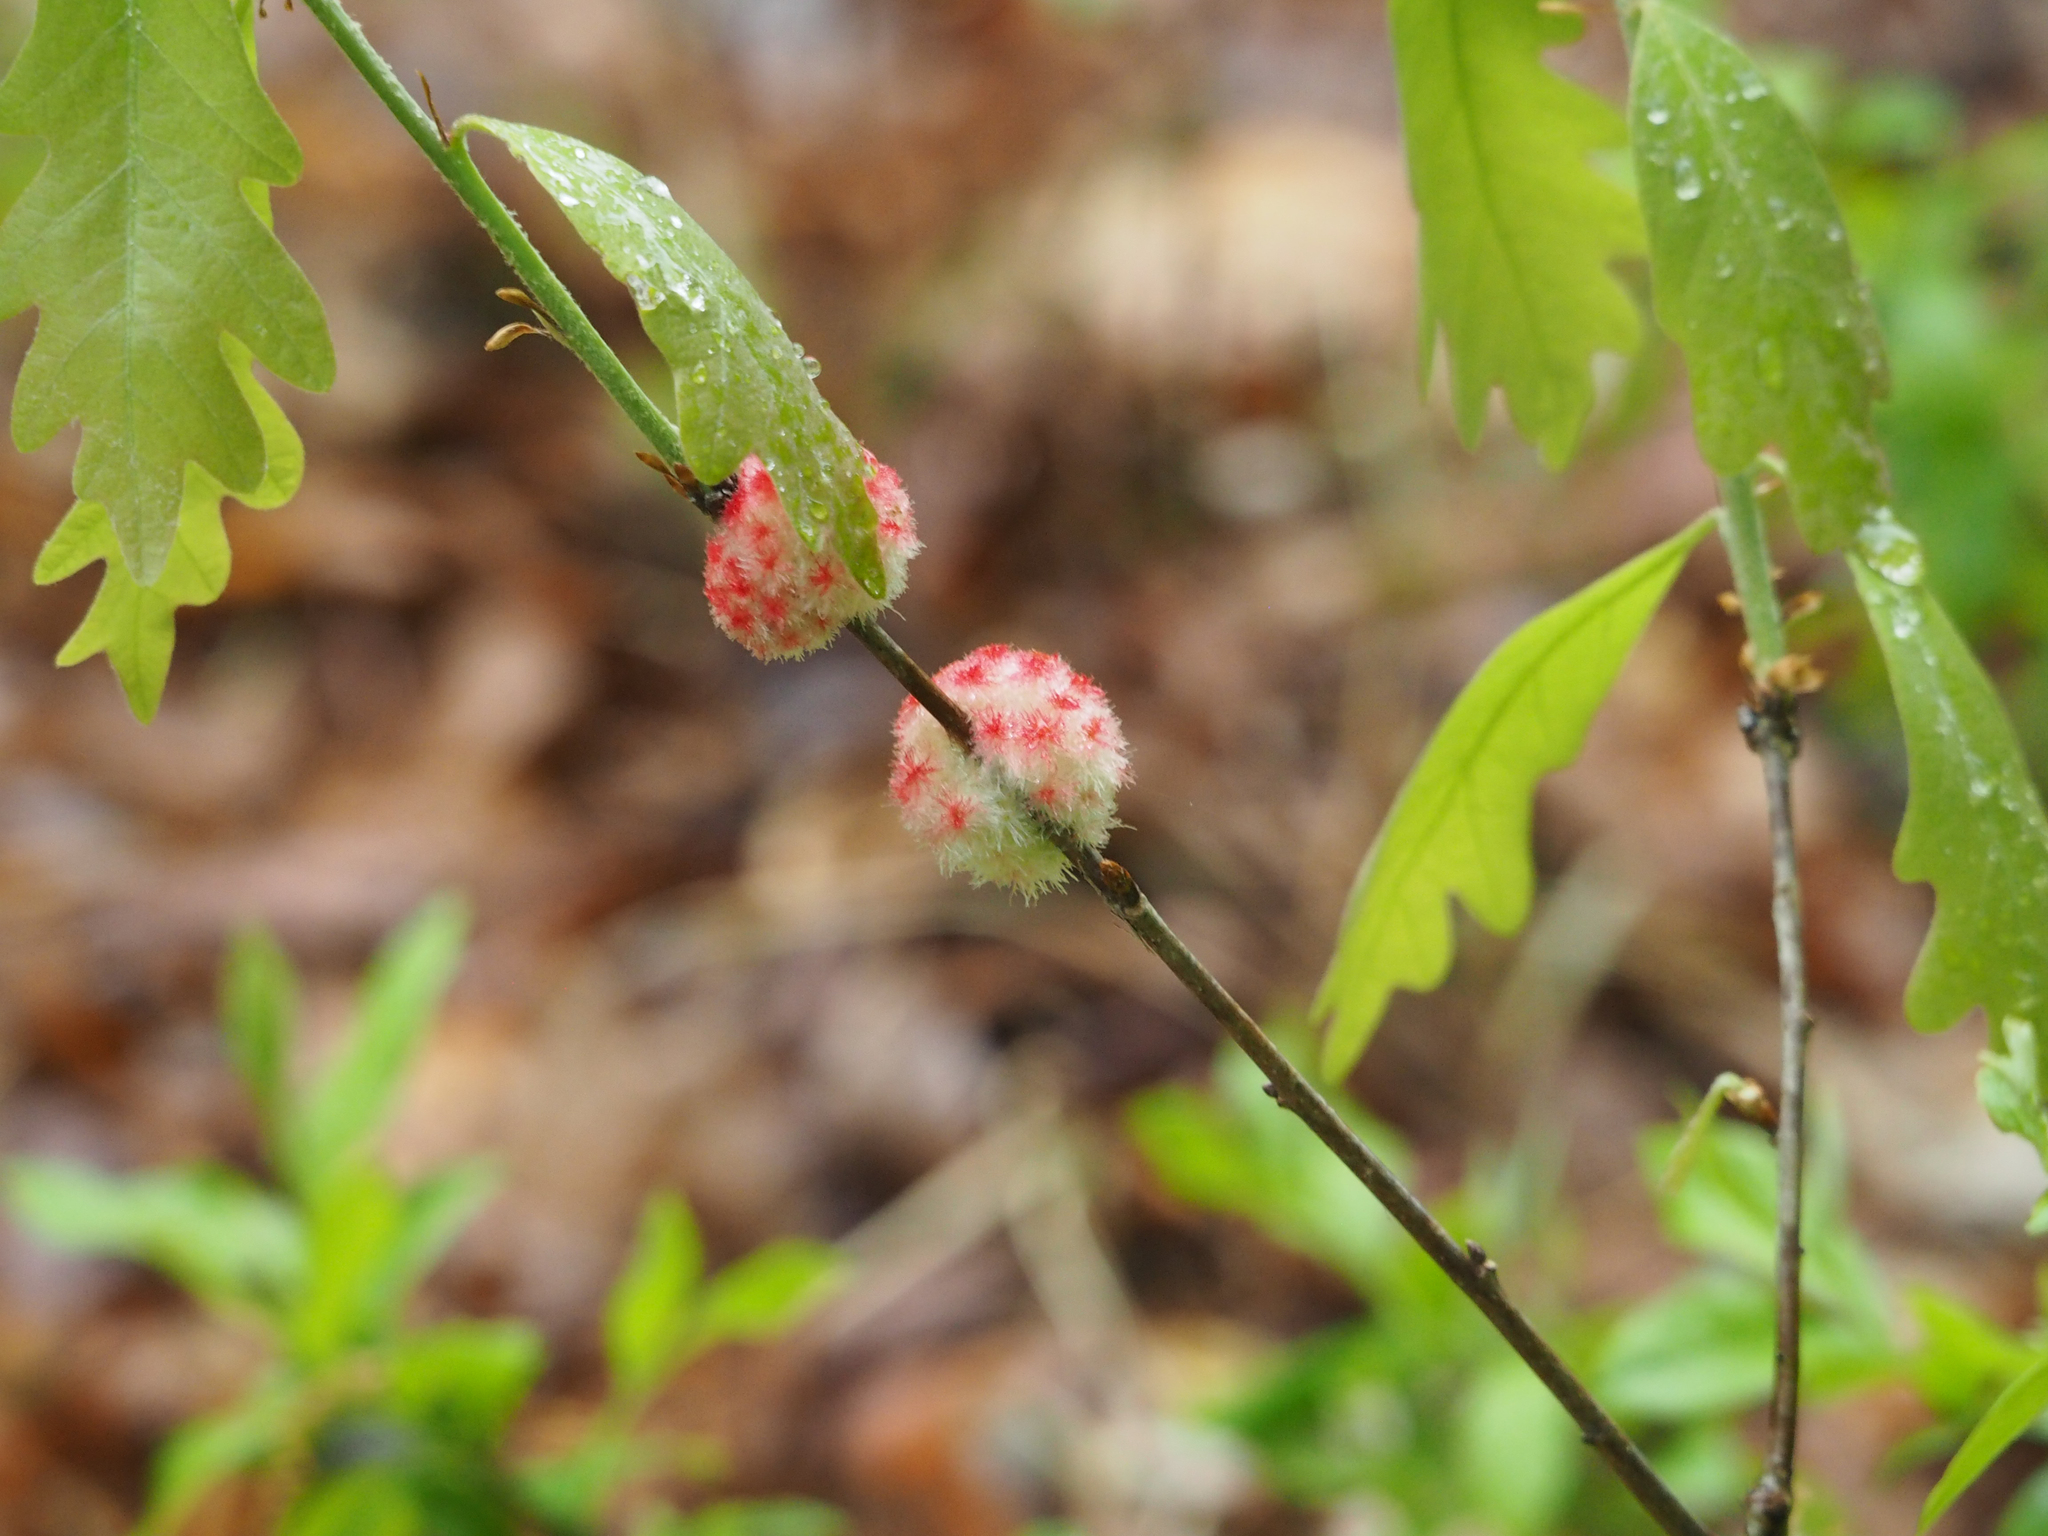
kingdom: Animalia
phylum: Arthropoda
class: Insecta
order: Hymenoptera
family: Cynipidae
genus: Callirhytis
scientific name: Callirhytis
